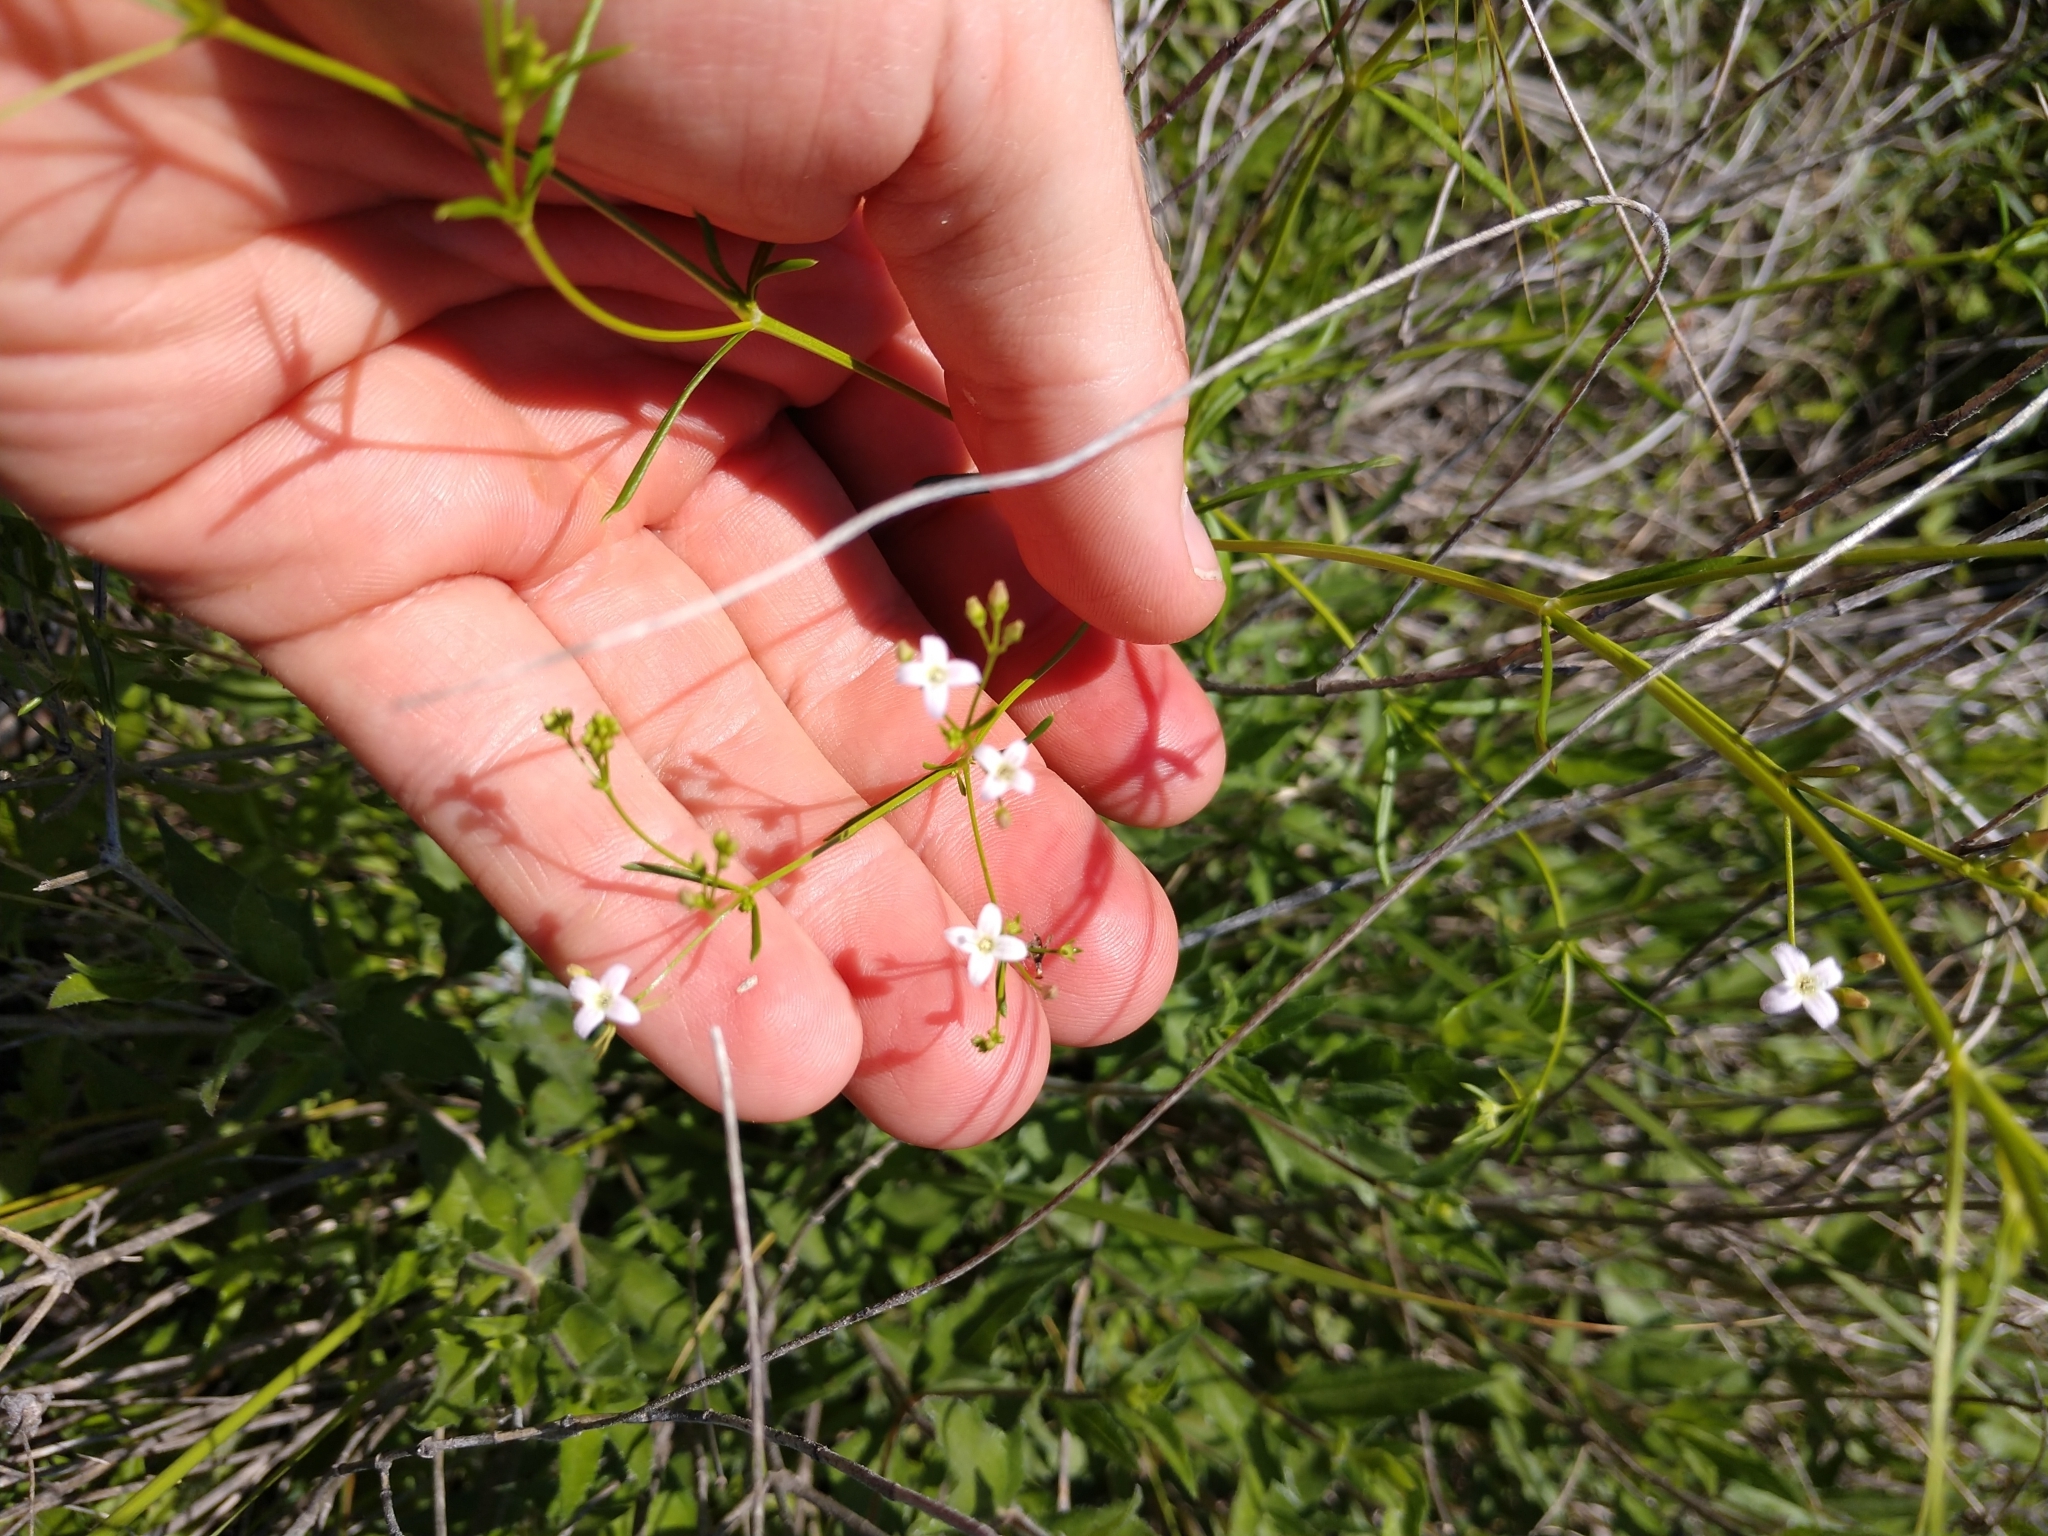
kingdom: Plantae
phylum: Tracheophyta
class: Magnoliopsida
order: Gentianales
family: Rubiaceae
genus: Stenaria
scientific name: Stenaria nigricans
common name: Diamondflowers
